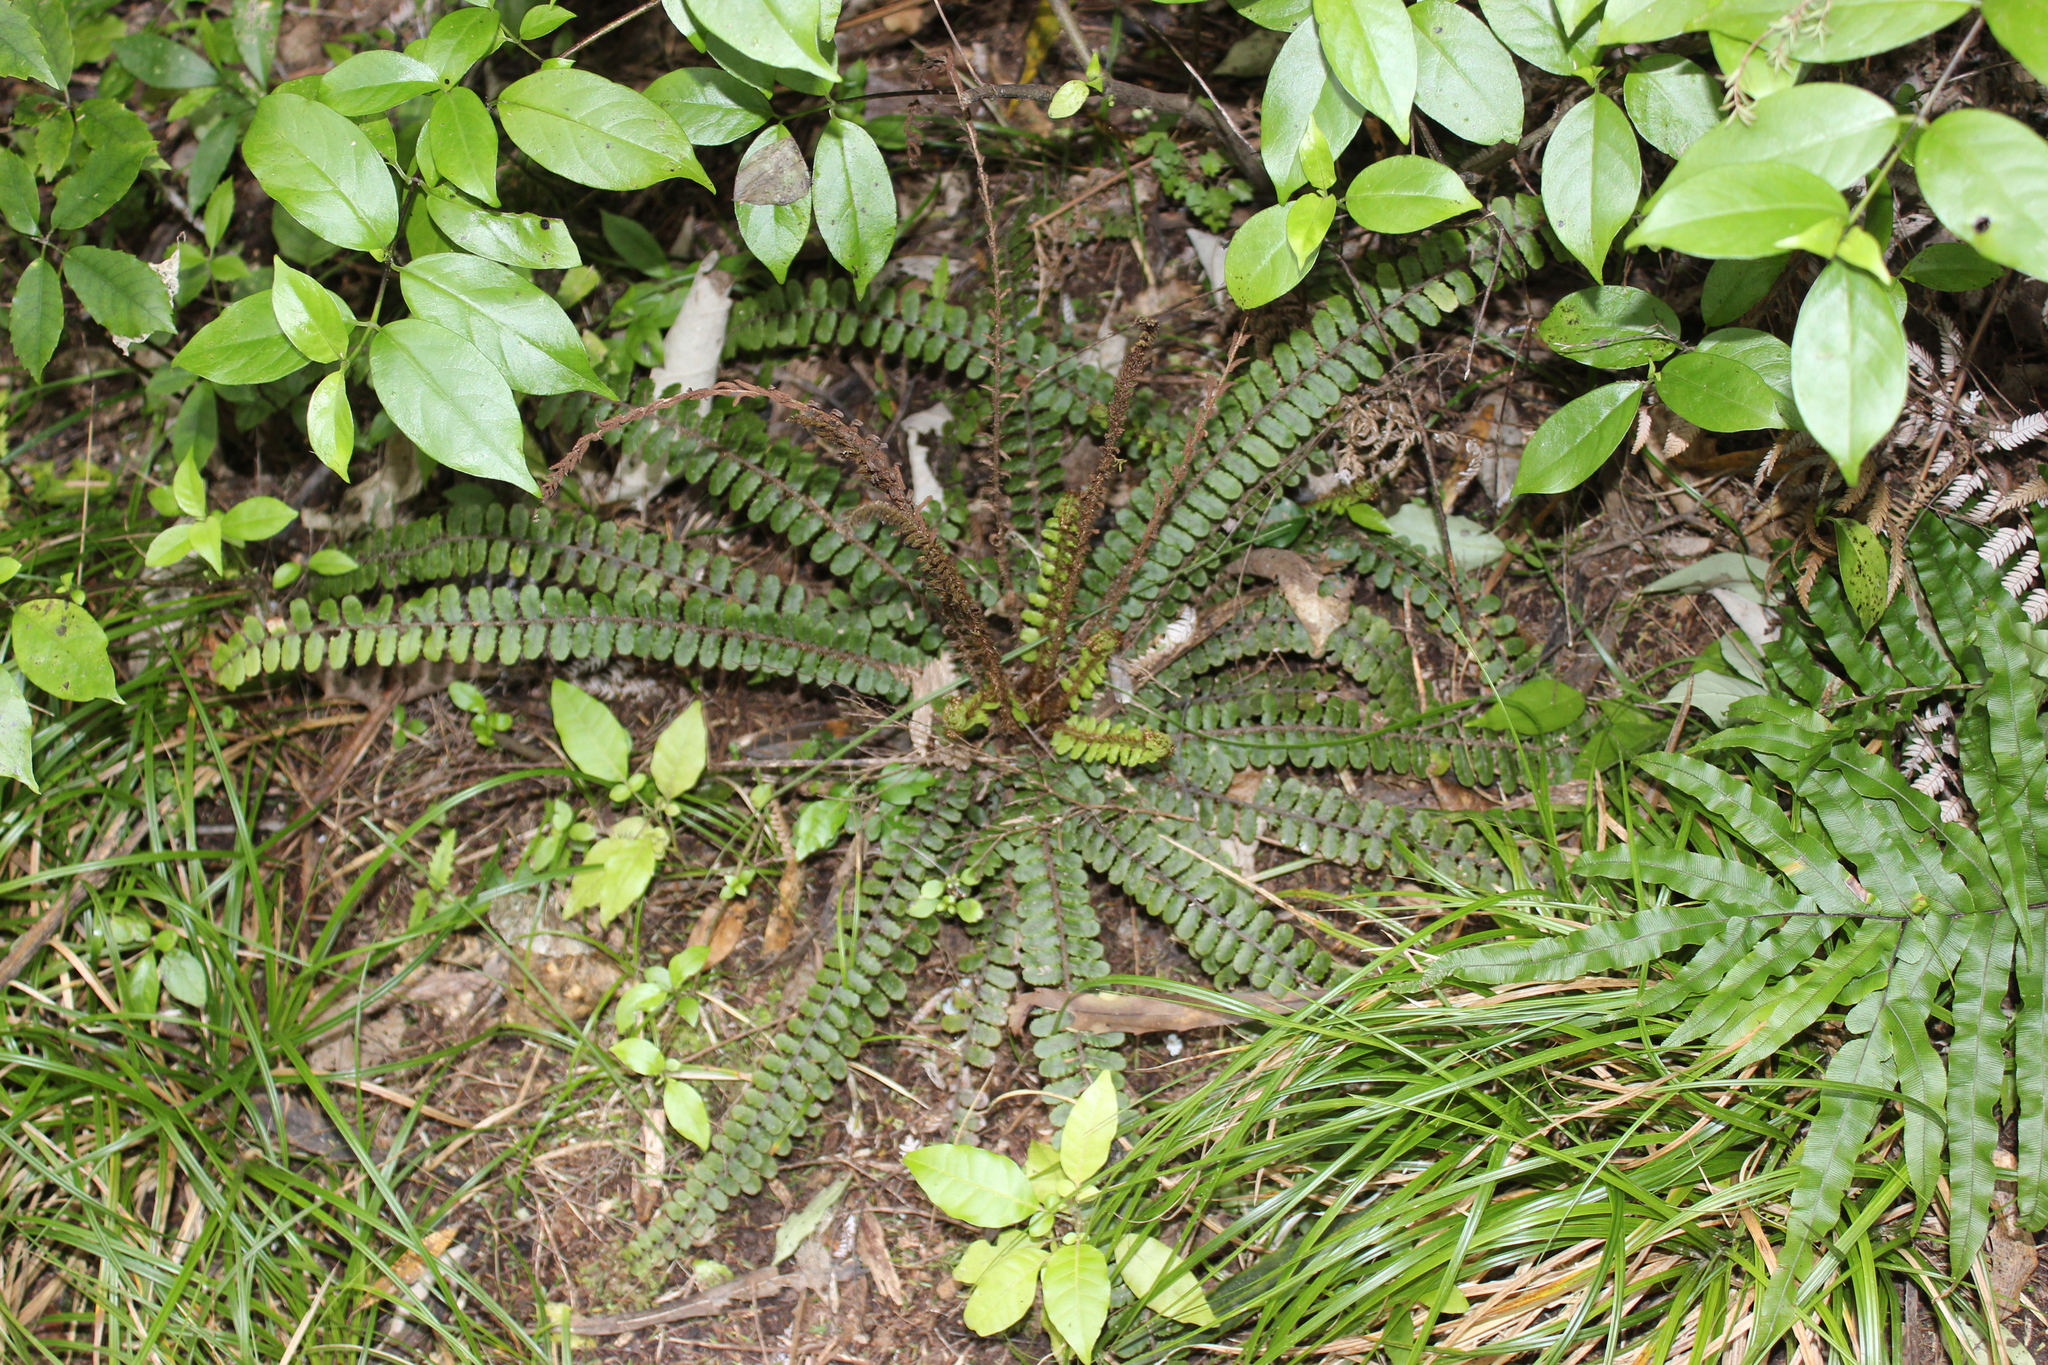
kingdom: Plantae
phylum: Tracheophyta
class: Polypodiopsida
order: Polypodiales
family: Blechnaceae
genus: Cranfillia
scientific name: Cranfillia fluviatilis
